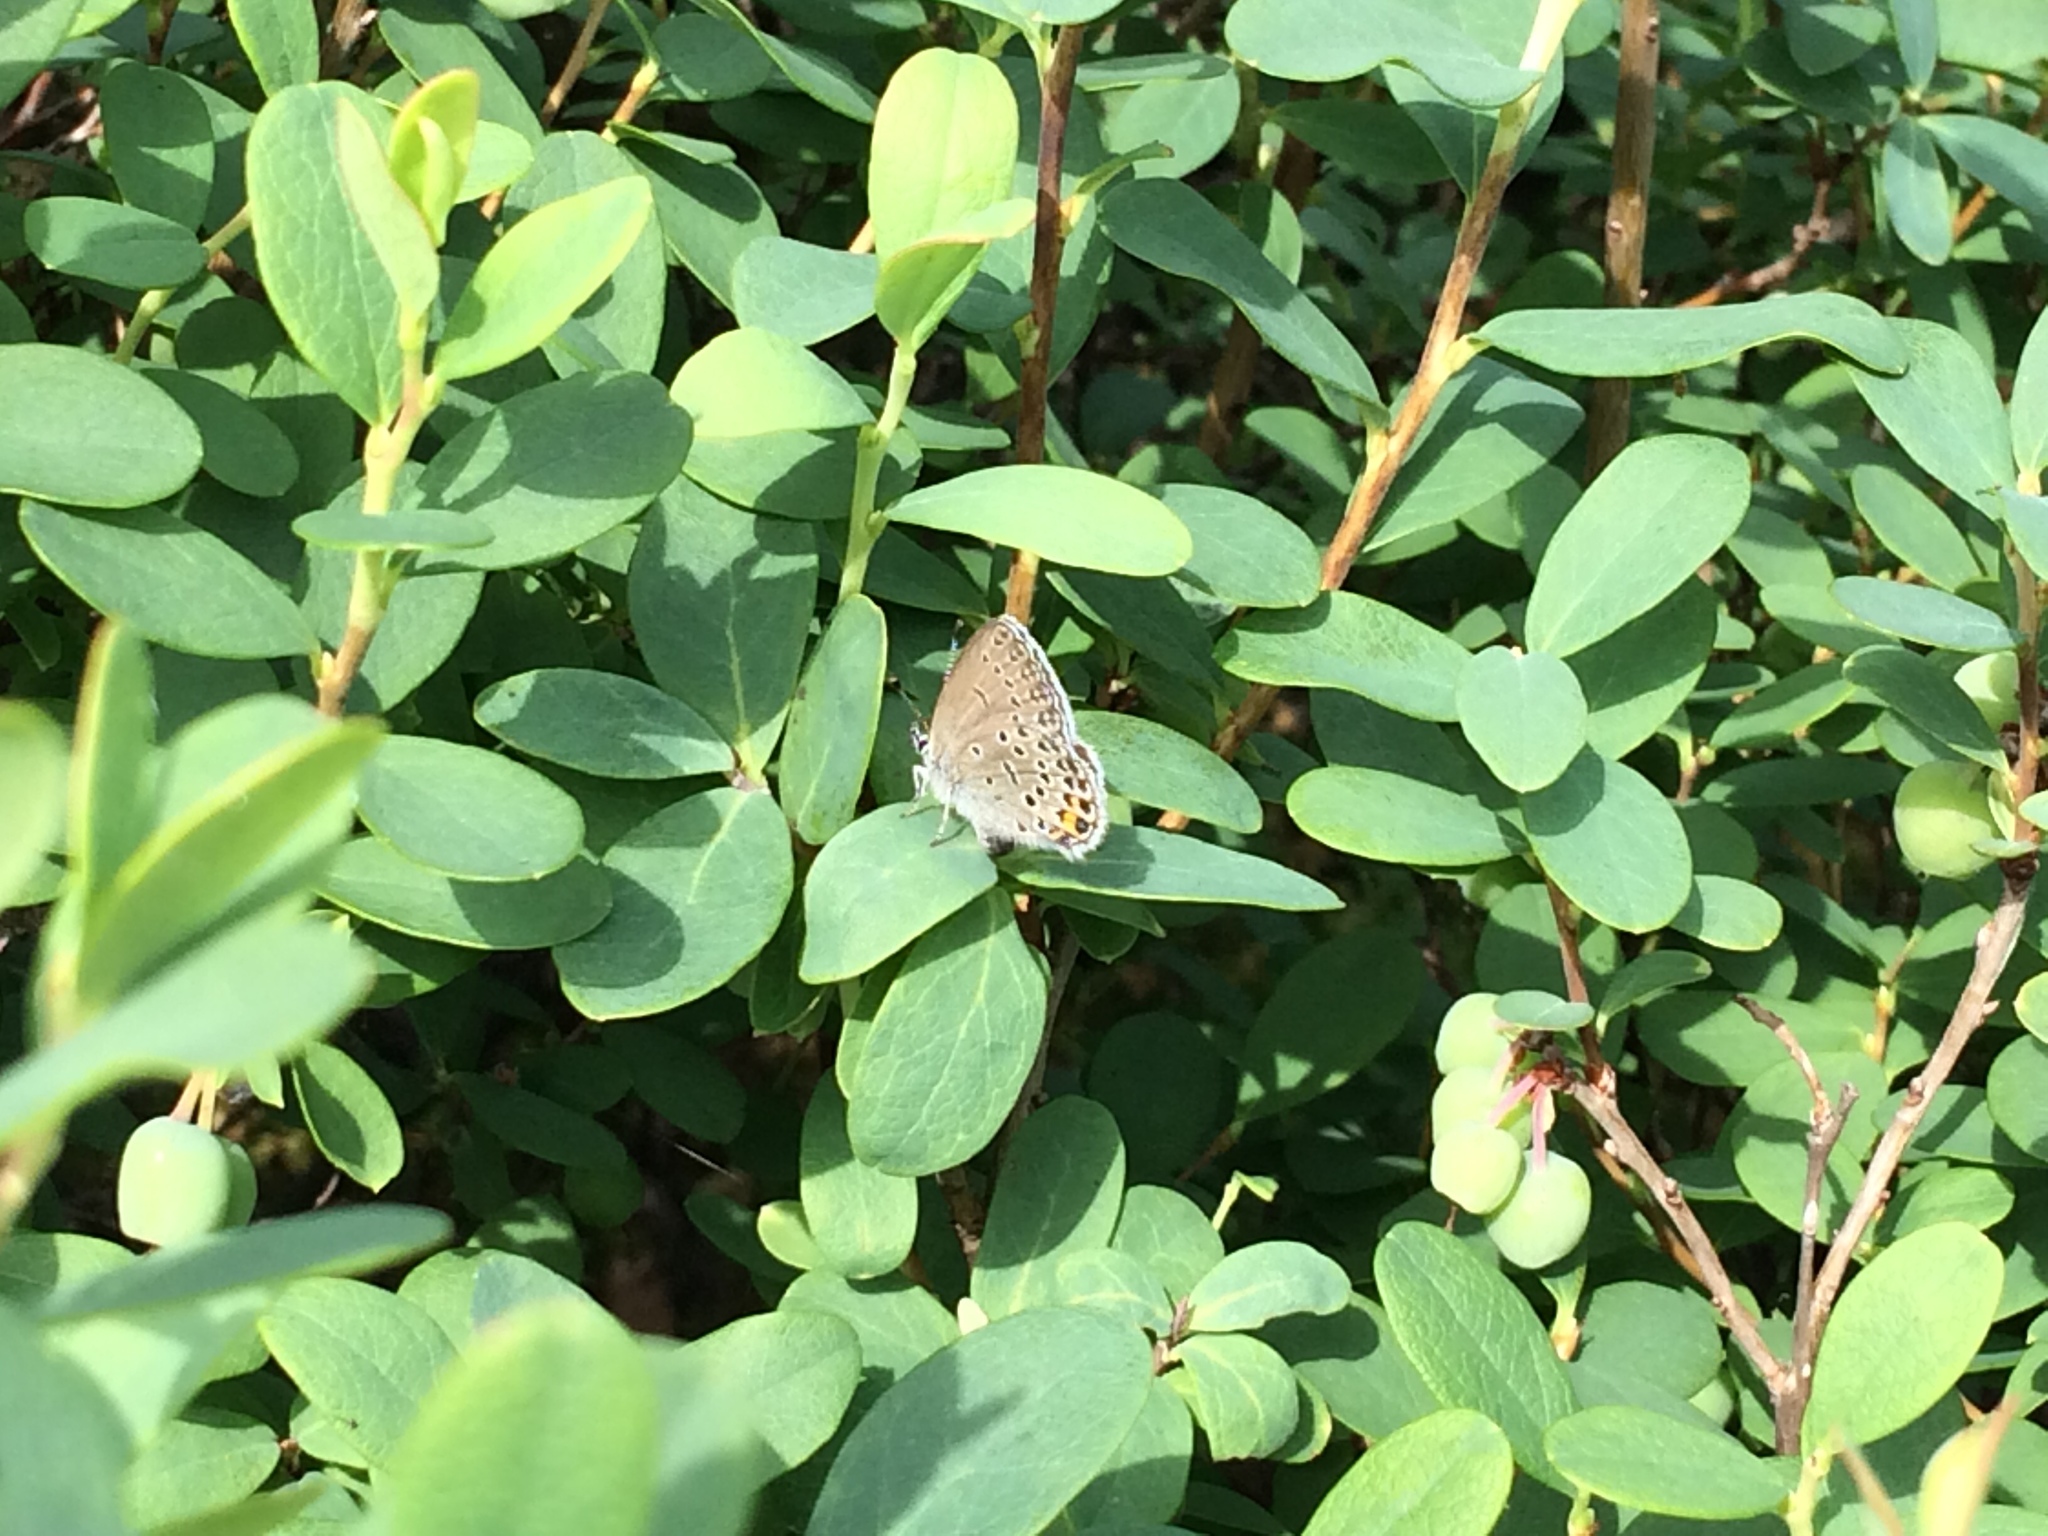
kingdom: Animalia
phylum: Arthropoda
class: Insecta
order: Lepidoptera
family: Lycaenidae
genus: Vacciniina
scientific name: Vacciniina optilete
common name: Cranberry blue
